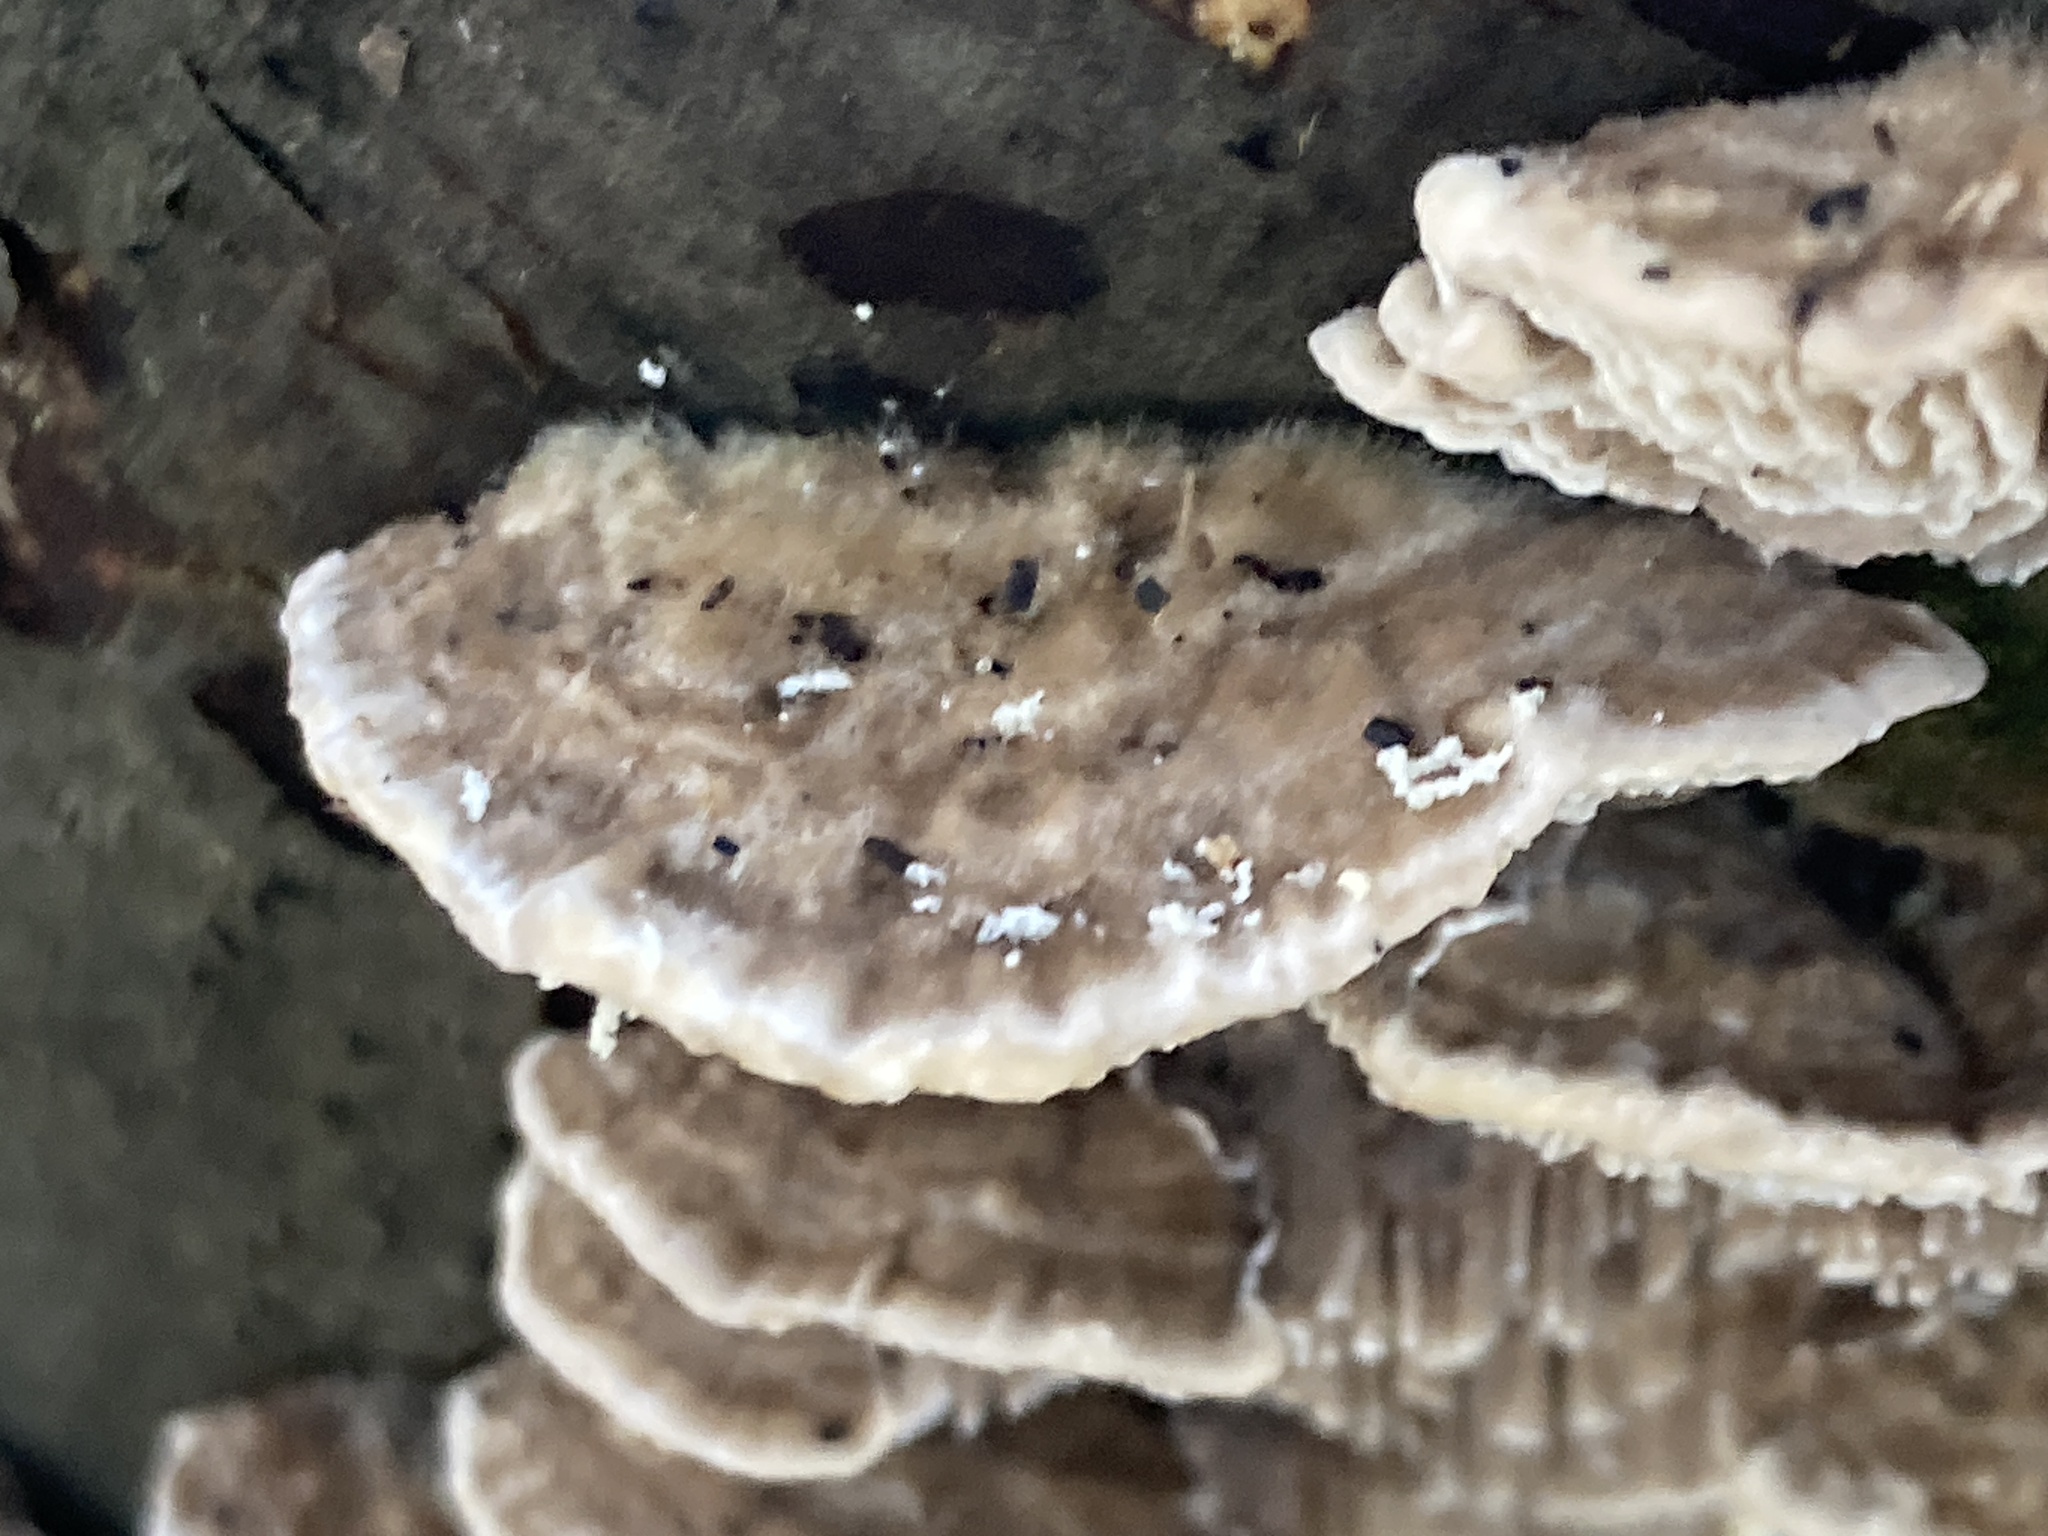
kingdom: Fungi
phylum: Basidiomycota
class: Agaricomycetes
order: Polyporales
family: Fomitopsidaceae
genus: Fomitopsis
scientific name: Fomitopsis
